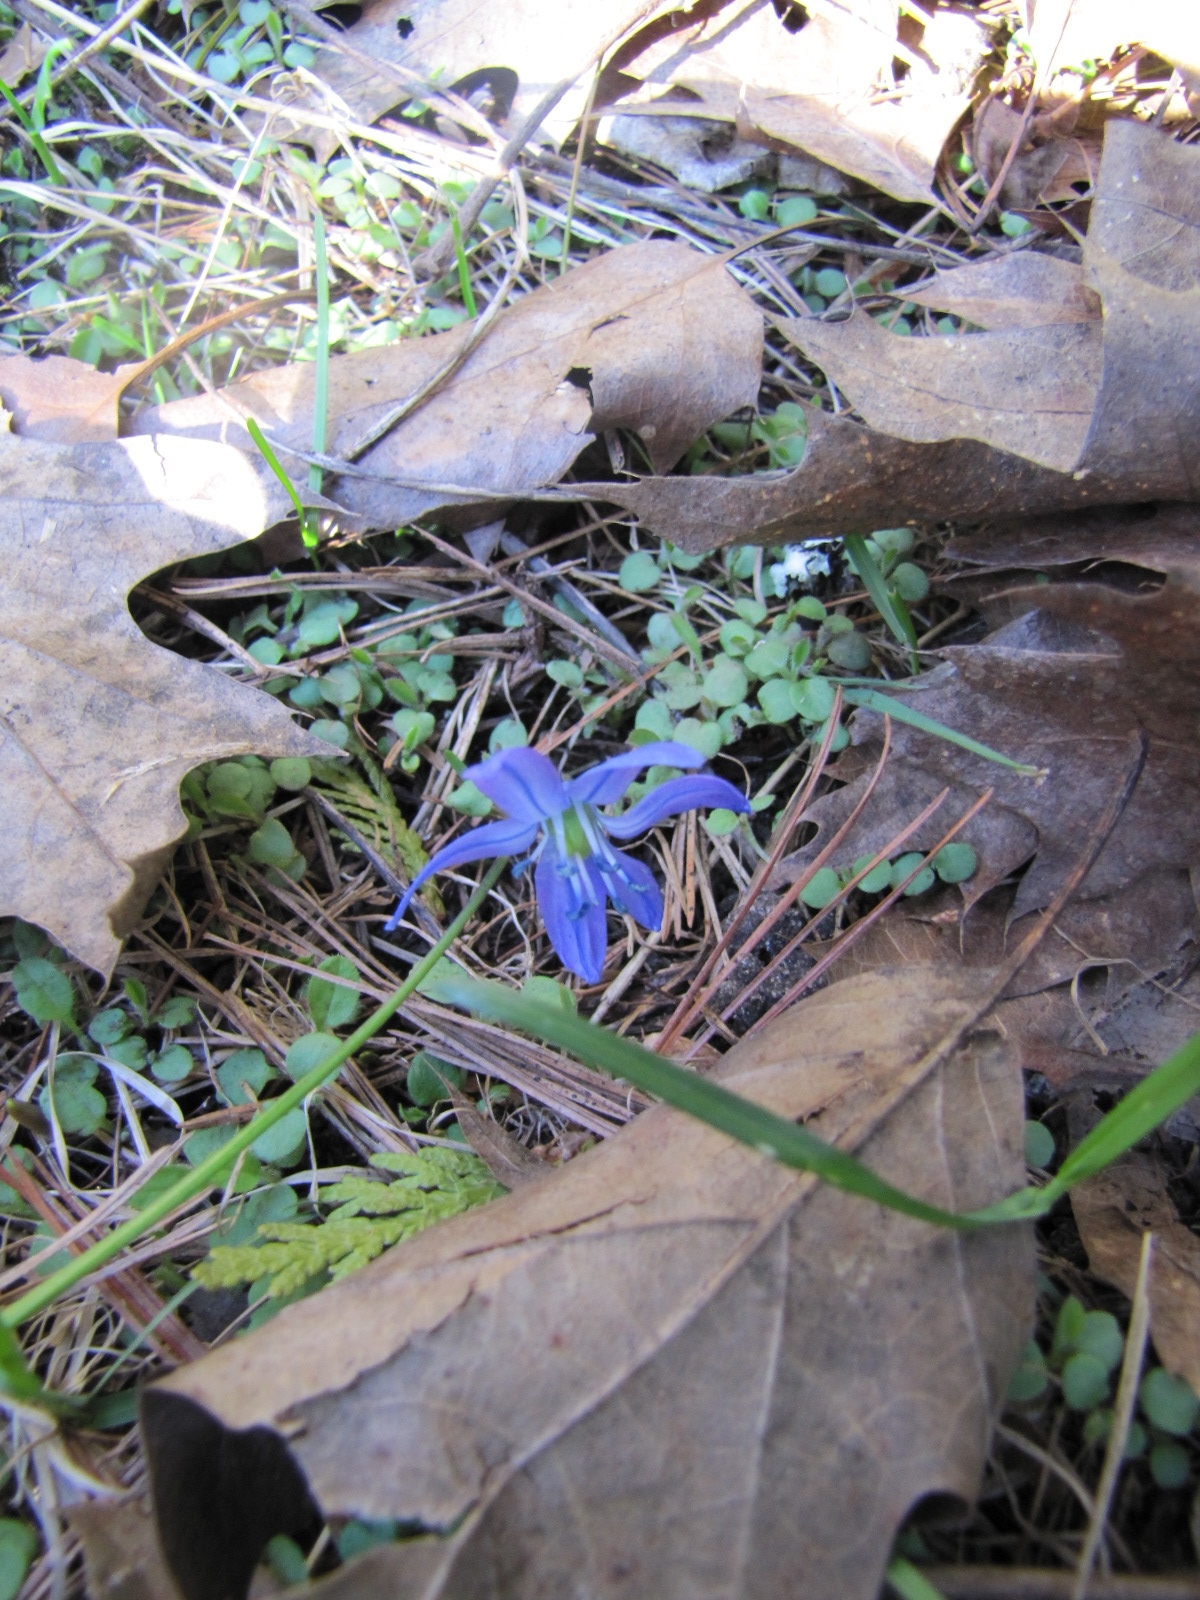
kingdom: Plantae
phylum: Tracheophyta
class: Liliopsida
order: Asparagales
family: Asparagaceae
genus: Scilla
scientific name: Scilla siberica
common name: Siberian squill
